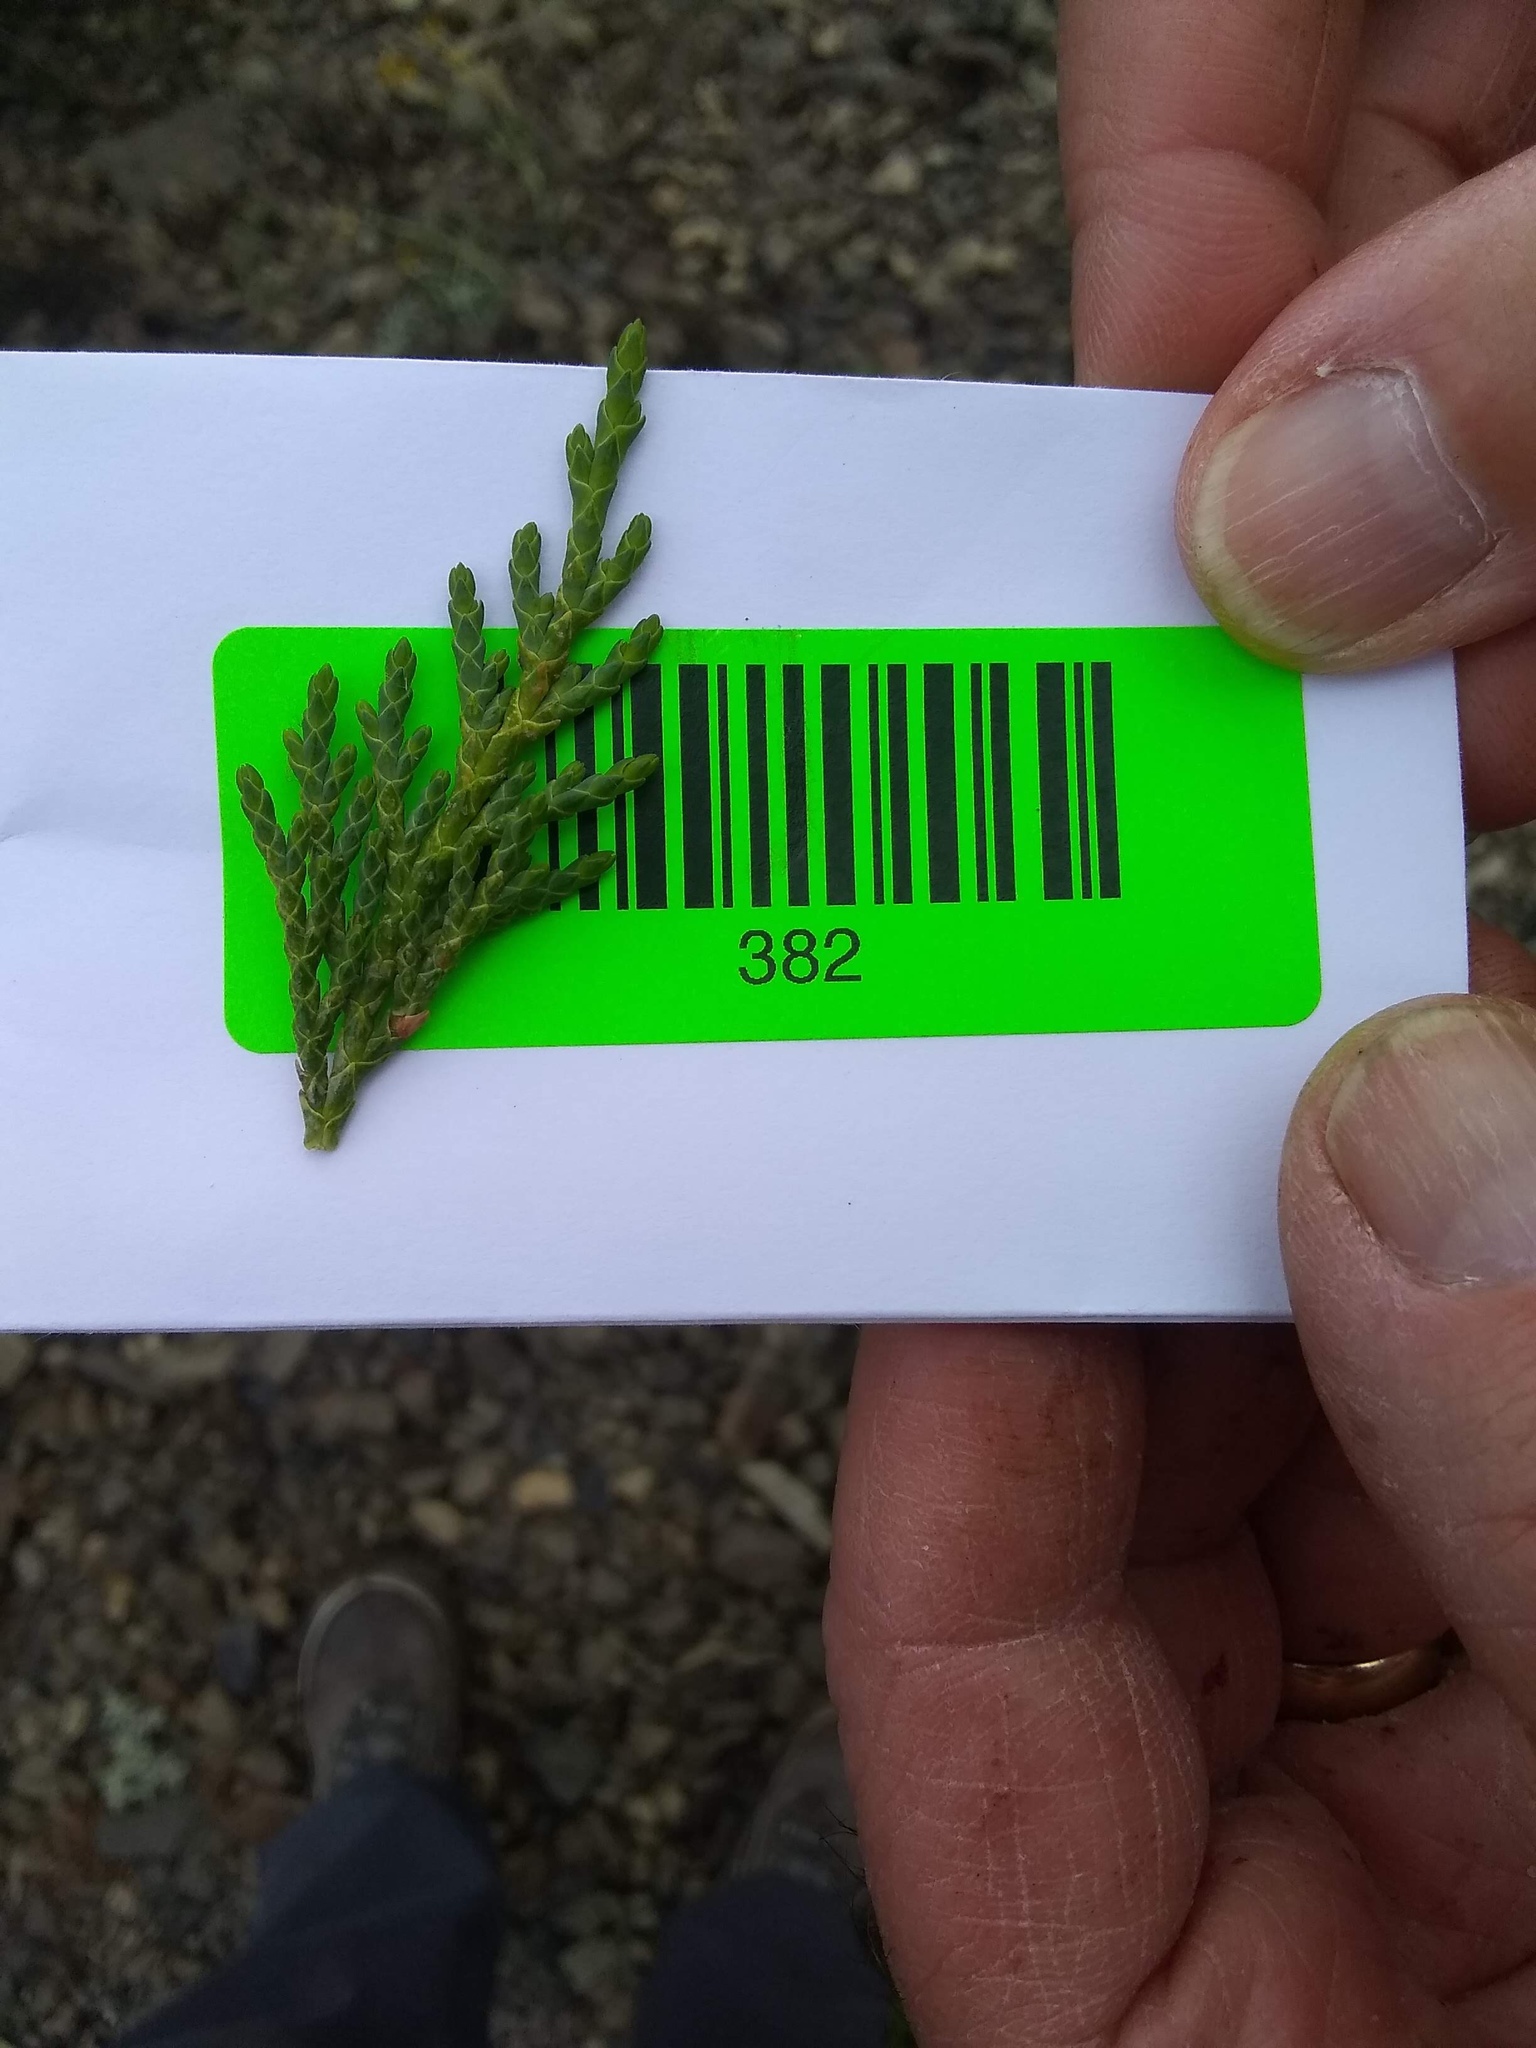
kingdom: Plantae
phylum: Tracheophyta
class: Pinopsida
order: Pinales
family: Cupressaceae
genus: Xanthocyparis
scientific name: Xanthocyparis nootkatensis
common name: Nootka cypress
